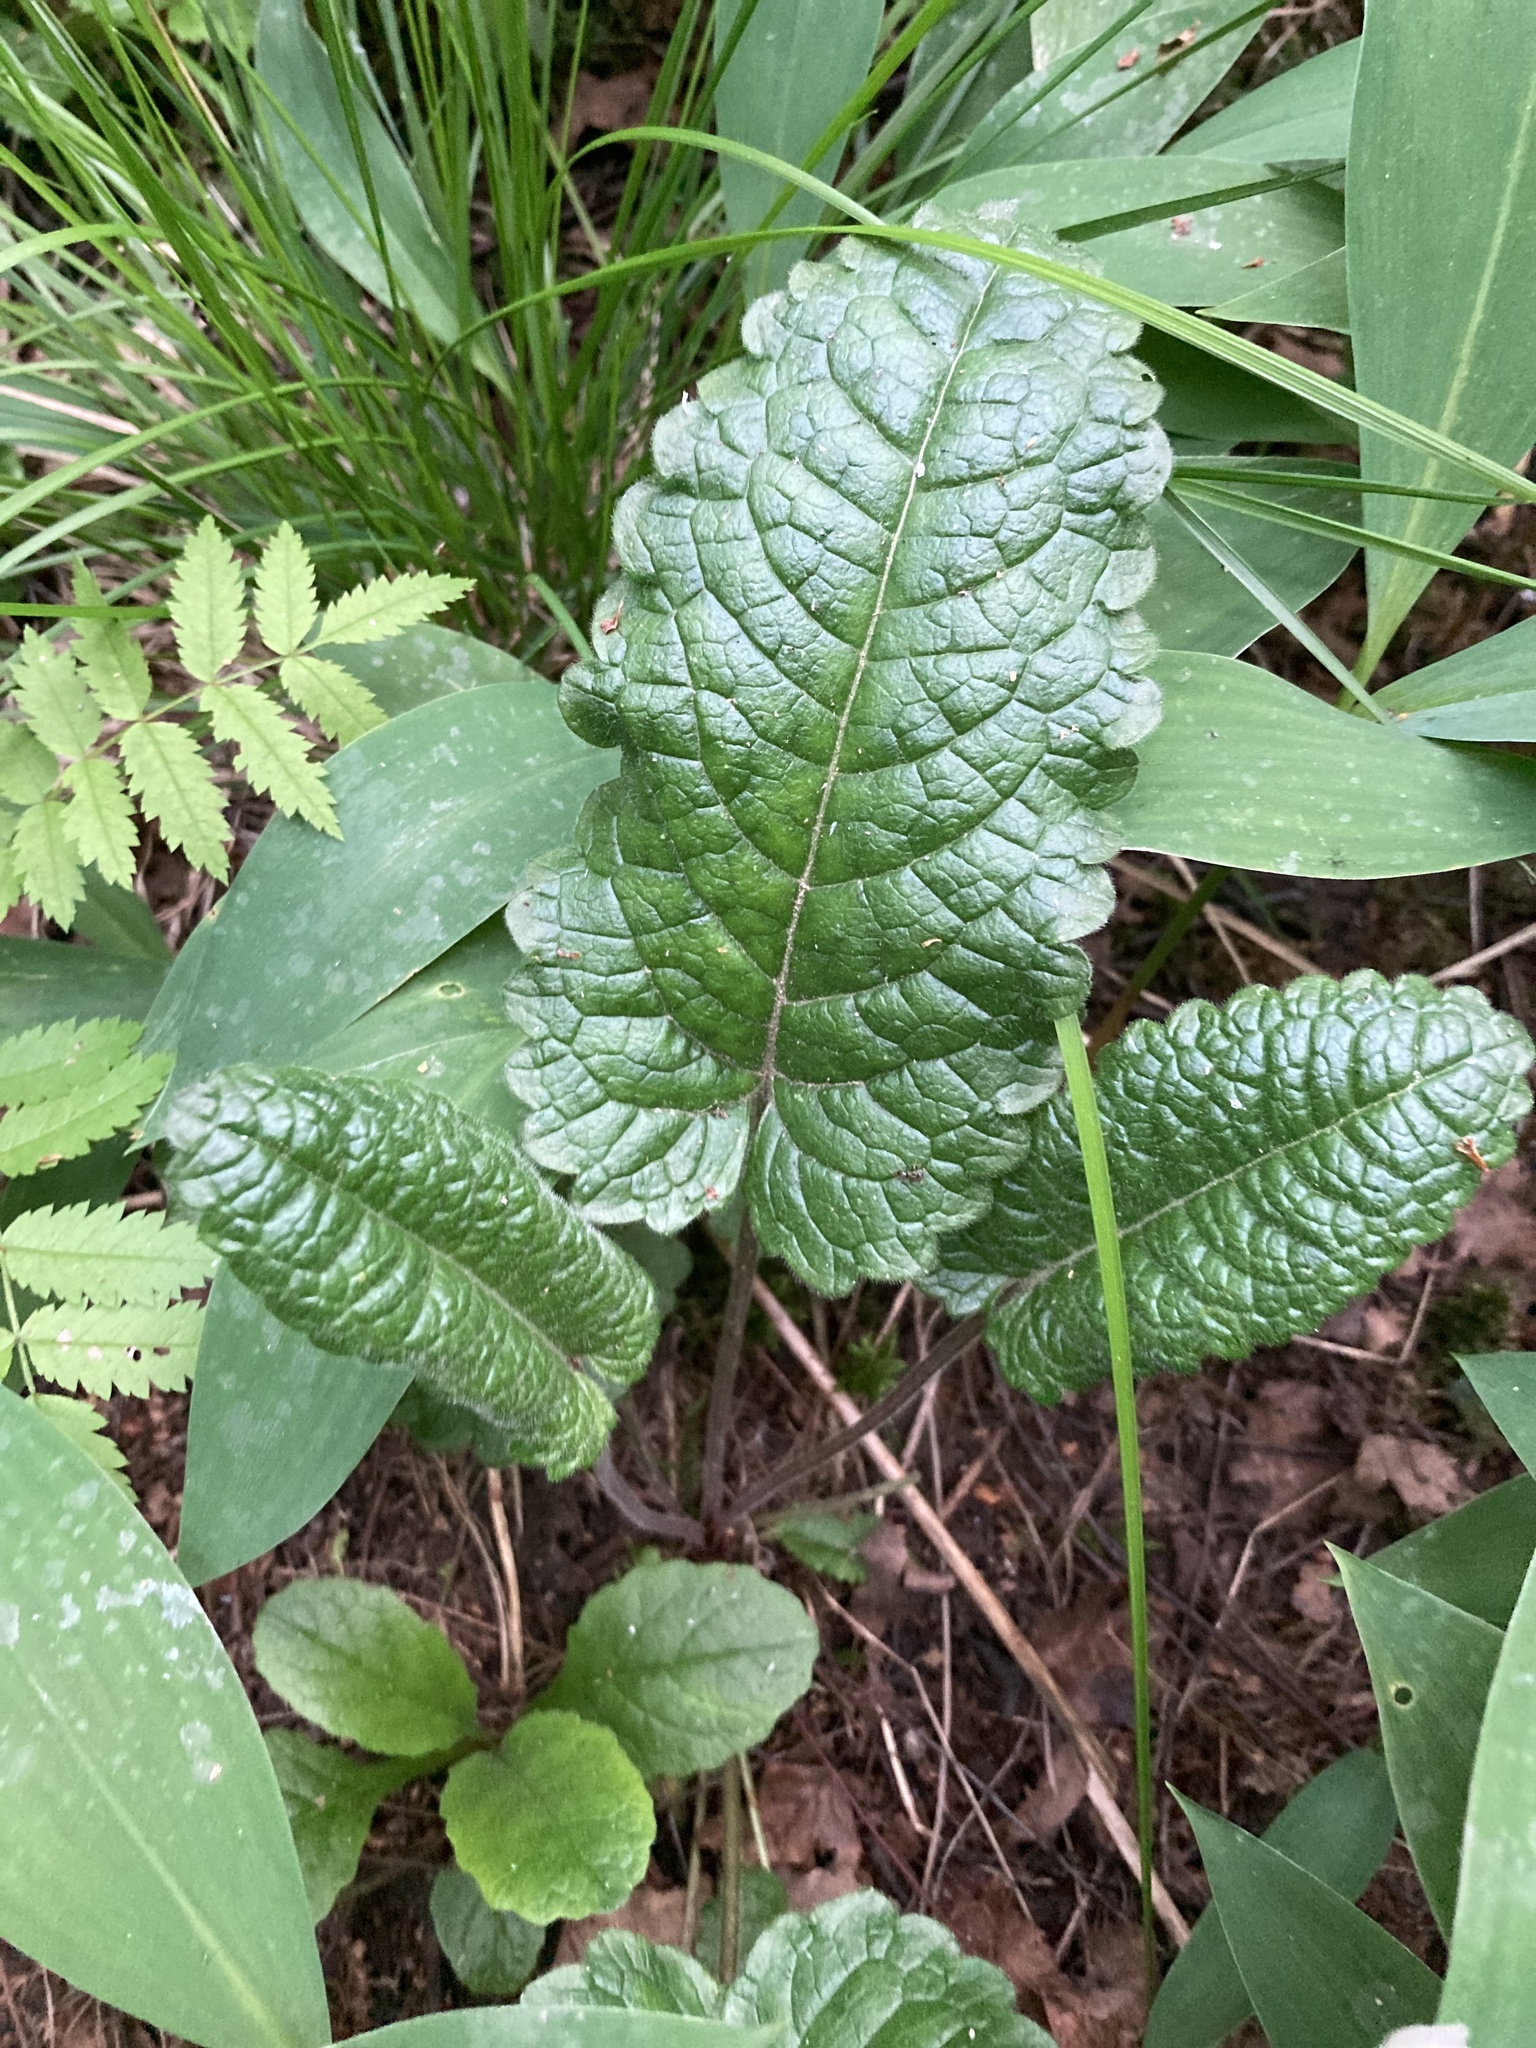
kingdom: Plantae
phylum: Tracheophyta
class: Magnoliopsida
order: Lamiales
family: Lamiaceae
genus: Betonica
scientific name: Betonica officinalis
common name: Bishop's-wort
